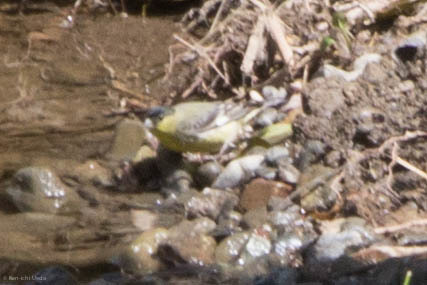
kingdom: Animalia
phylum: Chordata
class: Aves
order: Passeriformes
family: Fringillidae
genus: Spinus
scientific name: Spinus psaltria
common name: Lesser goldfinch
